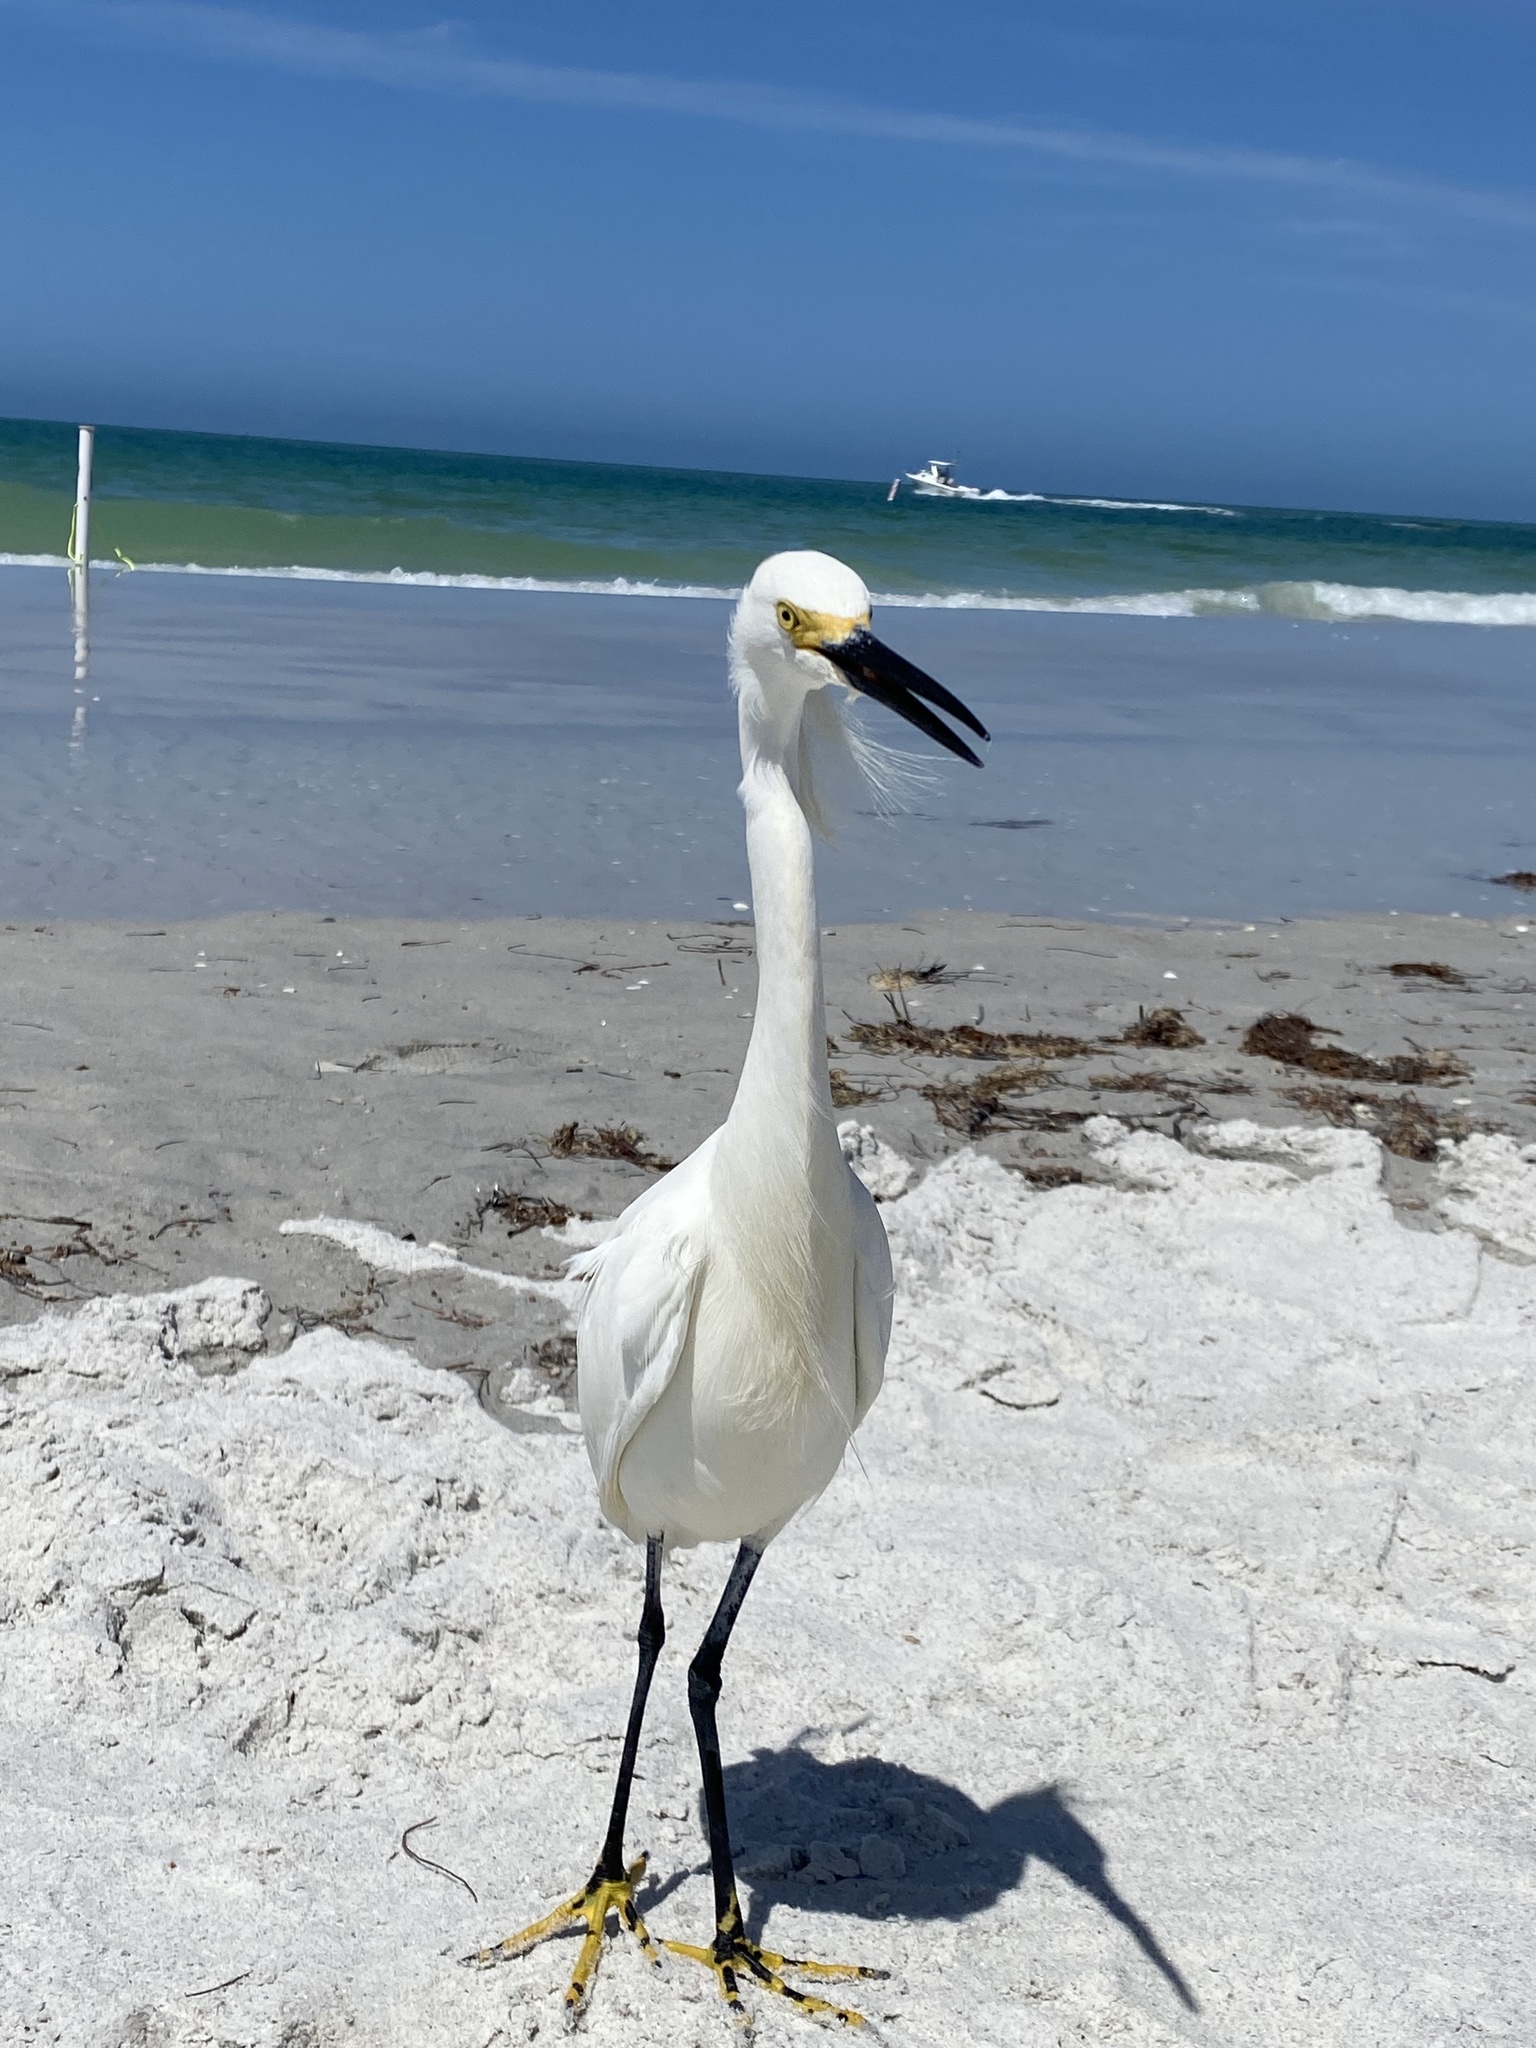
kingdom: Animalia
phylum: Chordata
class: Aves
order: Pelecaniformes
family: Ardeidae
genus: Egretta
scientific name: Egretta thula
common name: Snowy egret
